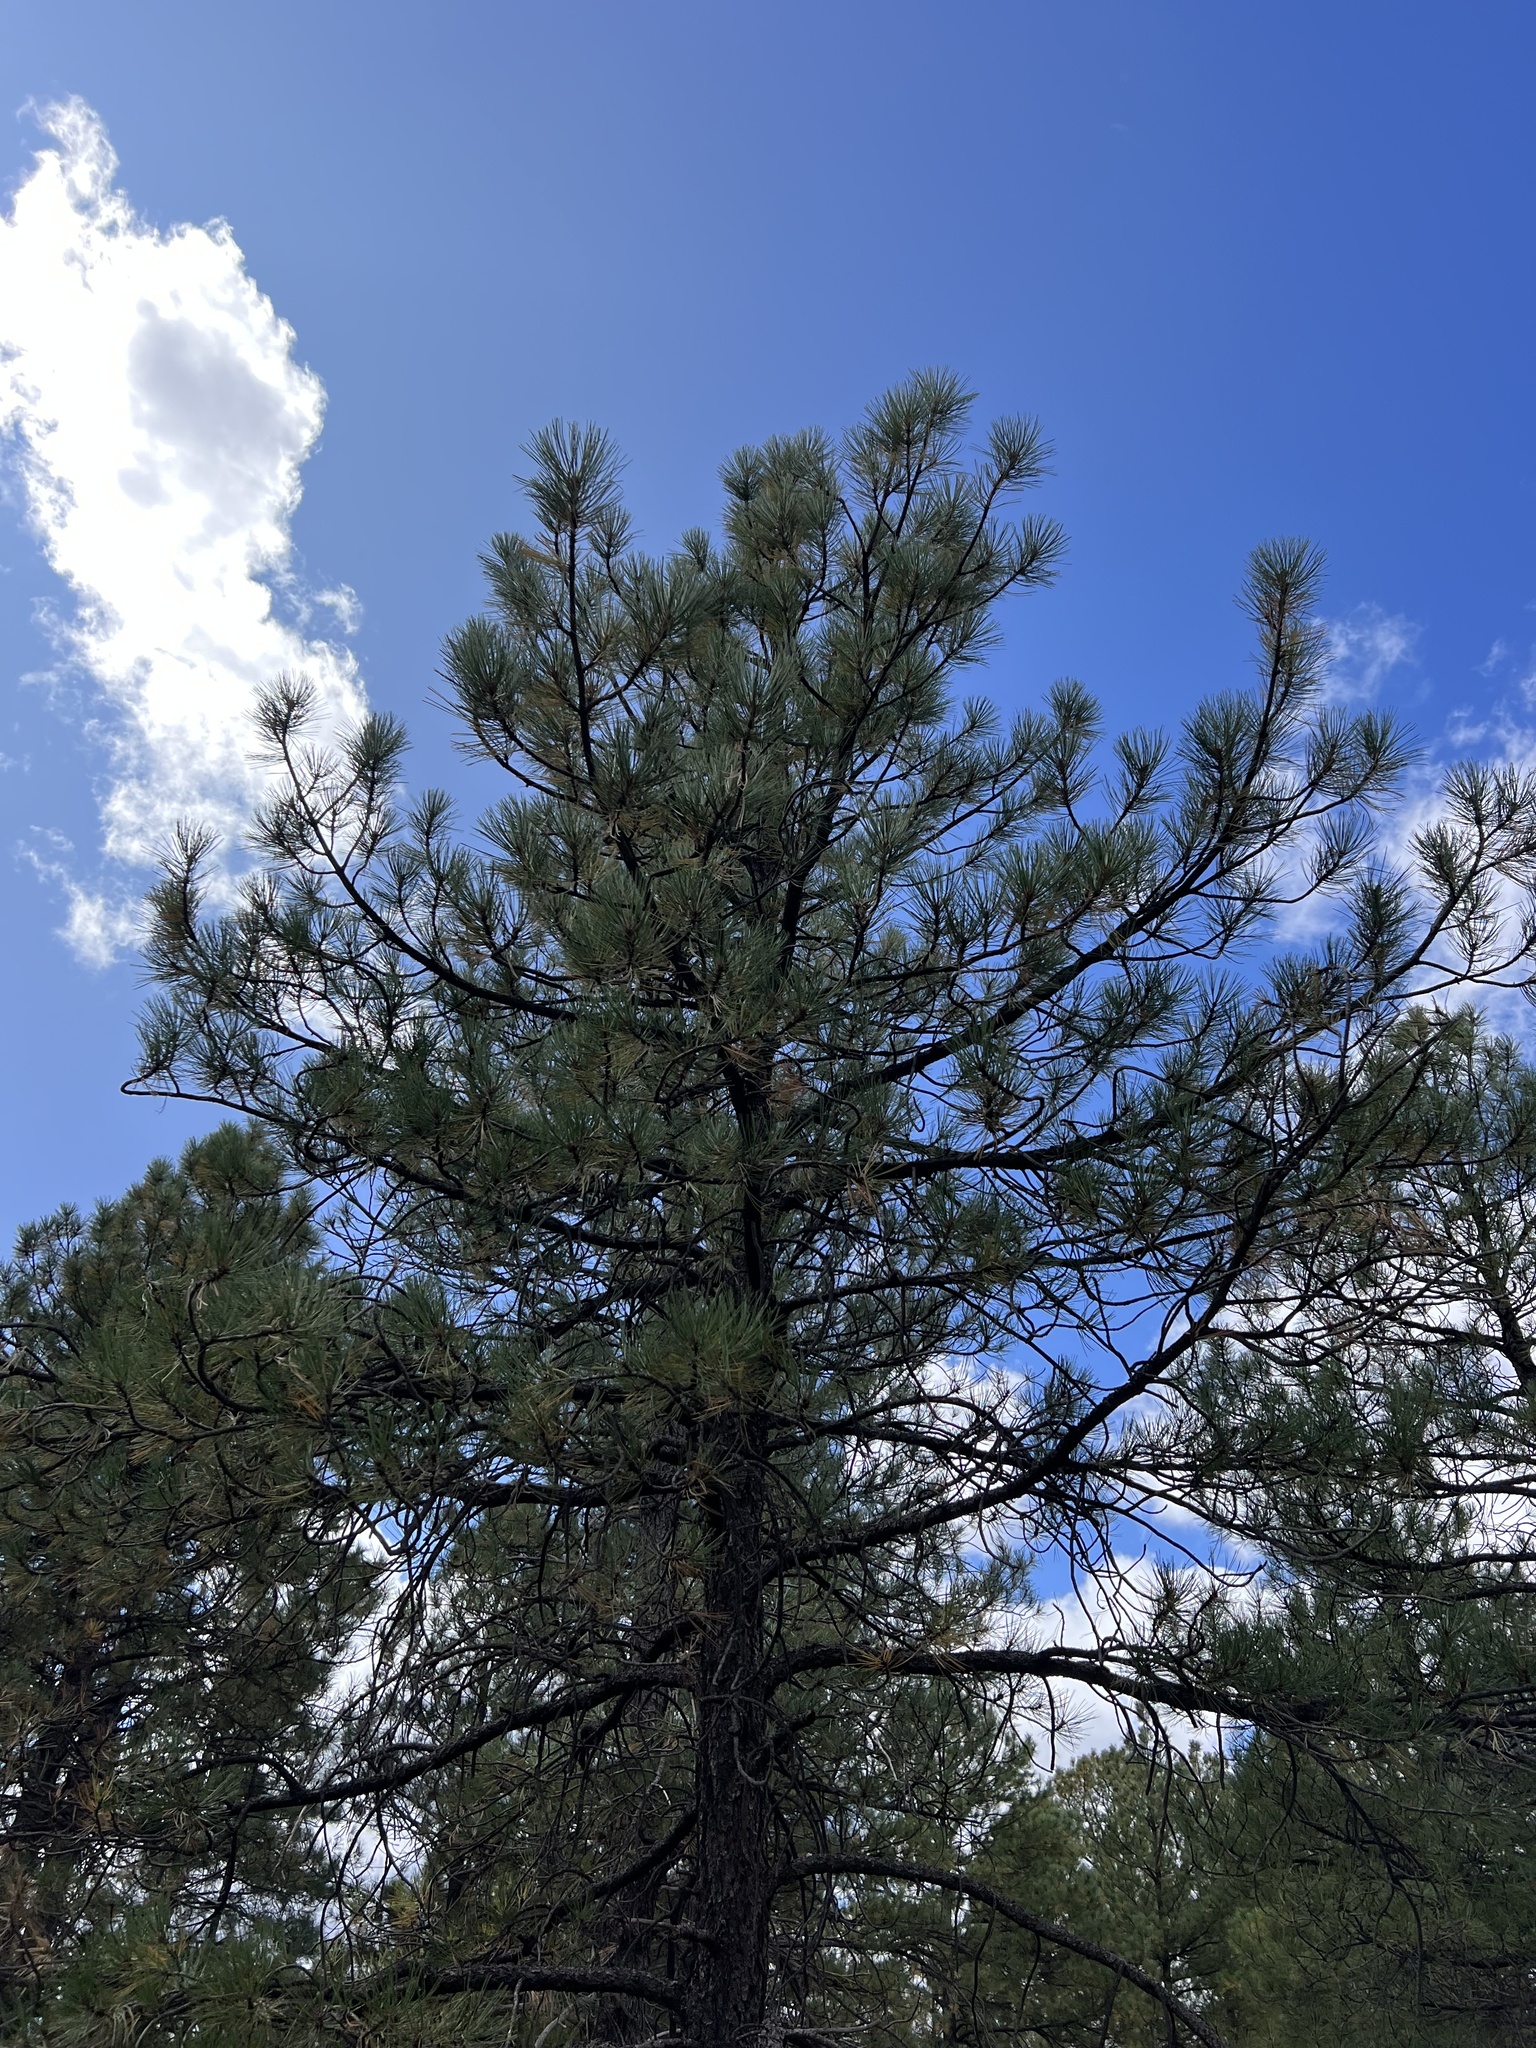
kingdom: Plantae
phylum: Tracheophyta
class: Pinopsida
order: Pinales
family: Pinaceae
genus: Pinus
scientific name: Pinus ponderosa
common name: Western yellow-pine
